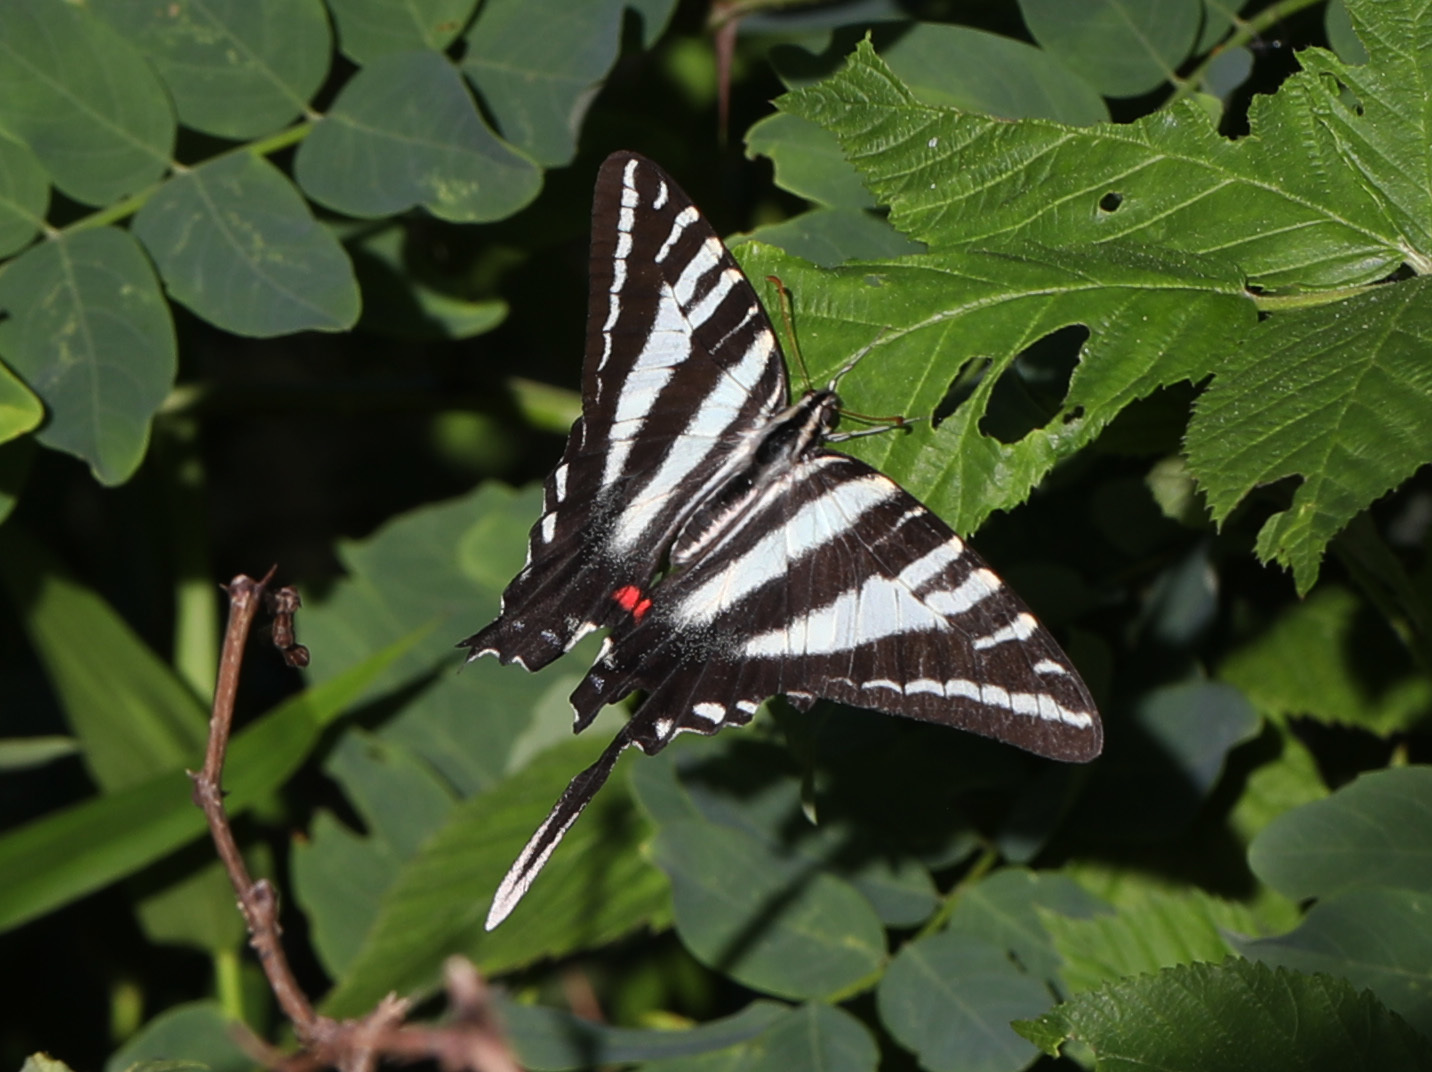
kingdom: Animalia
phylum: Arthropoda
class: Insecta
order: Lepidoptera
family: Papilionidae
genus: Protographium
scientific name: Protographium marcellus
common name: Zebra swallowtail
